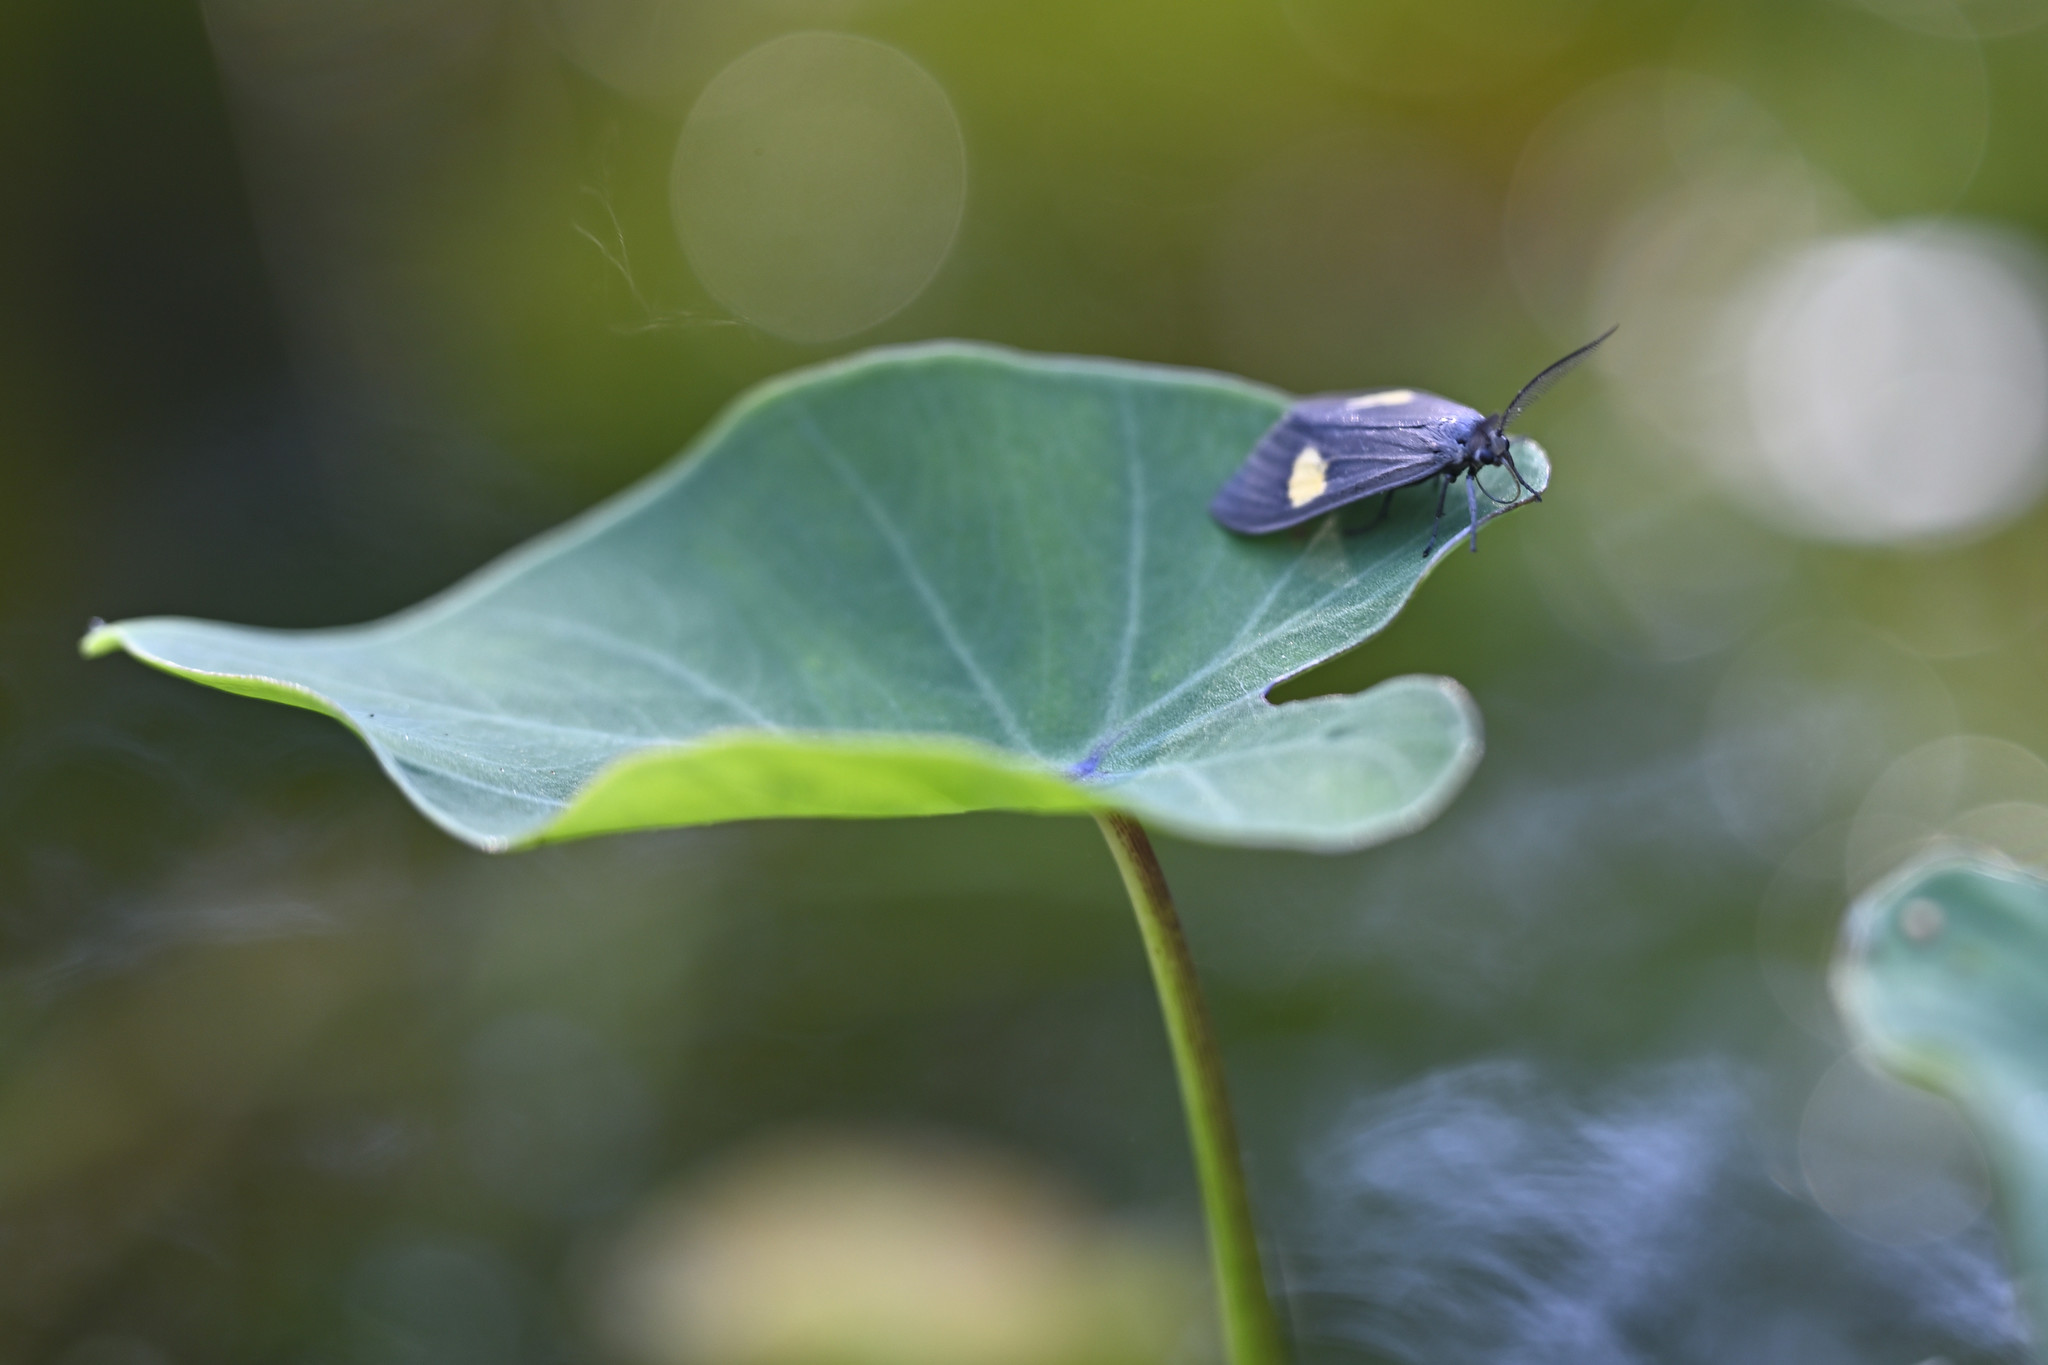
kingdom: Animalia
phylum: Arthropoda
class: Insecta
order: Lepidoptera
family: Notodontidae
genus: Phryganidia
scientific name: Phryganidia naxa
